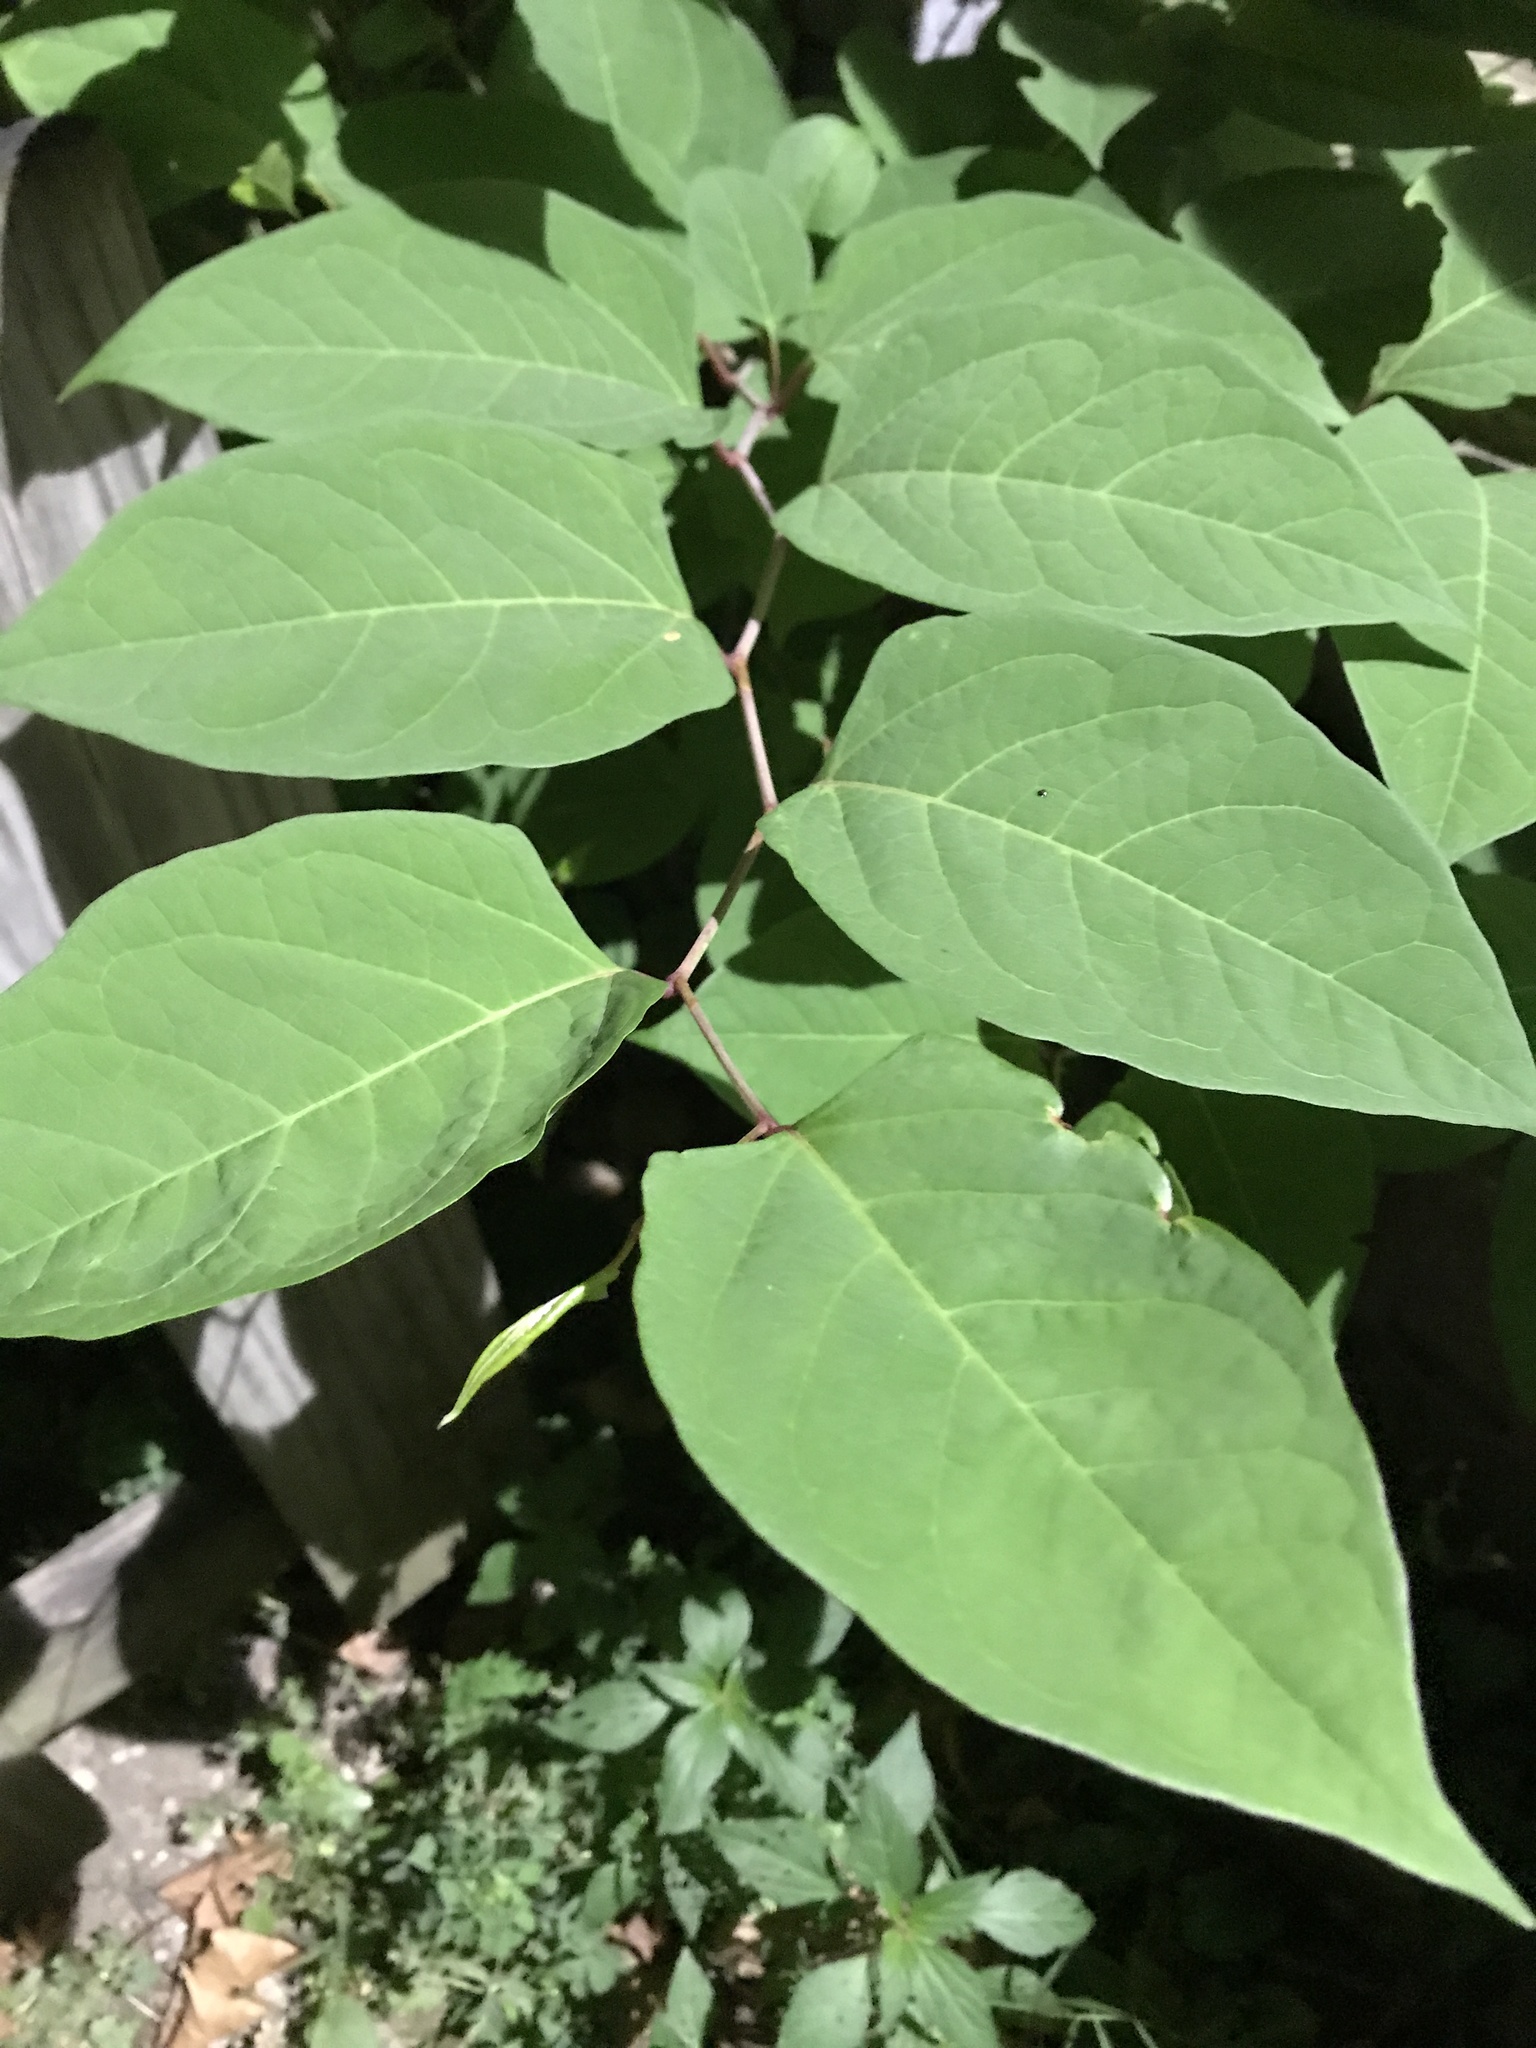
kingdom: Plantae
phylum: Tracheophyta
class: Magnoliopsida
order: Caryophyllales
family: Polygonaceae
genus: Reynoutria
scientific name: Reynoutria japonica
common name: Japanese knotweed
